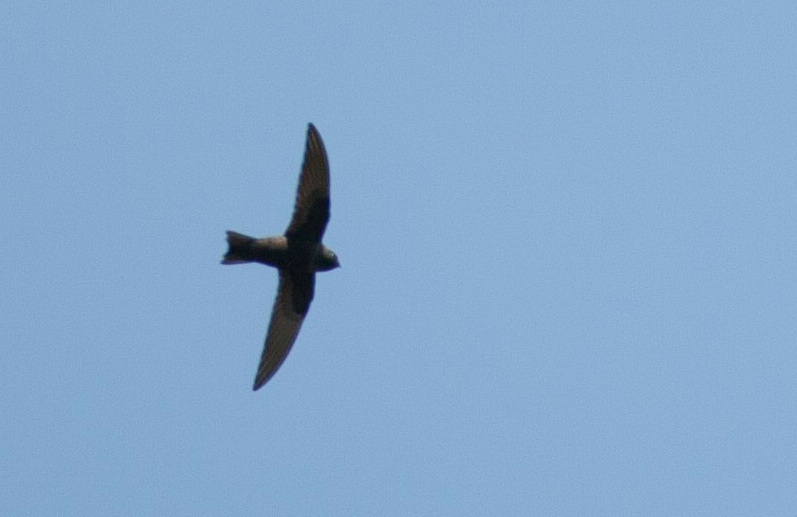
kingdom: Animalia
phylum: Chordata
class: Aves
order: Apodiformes
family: Apodidae
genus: Cypseloides
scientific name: Cypseloides niger
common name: Black swift
